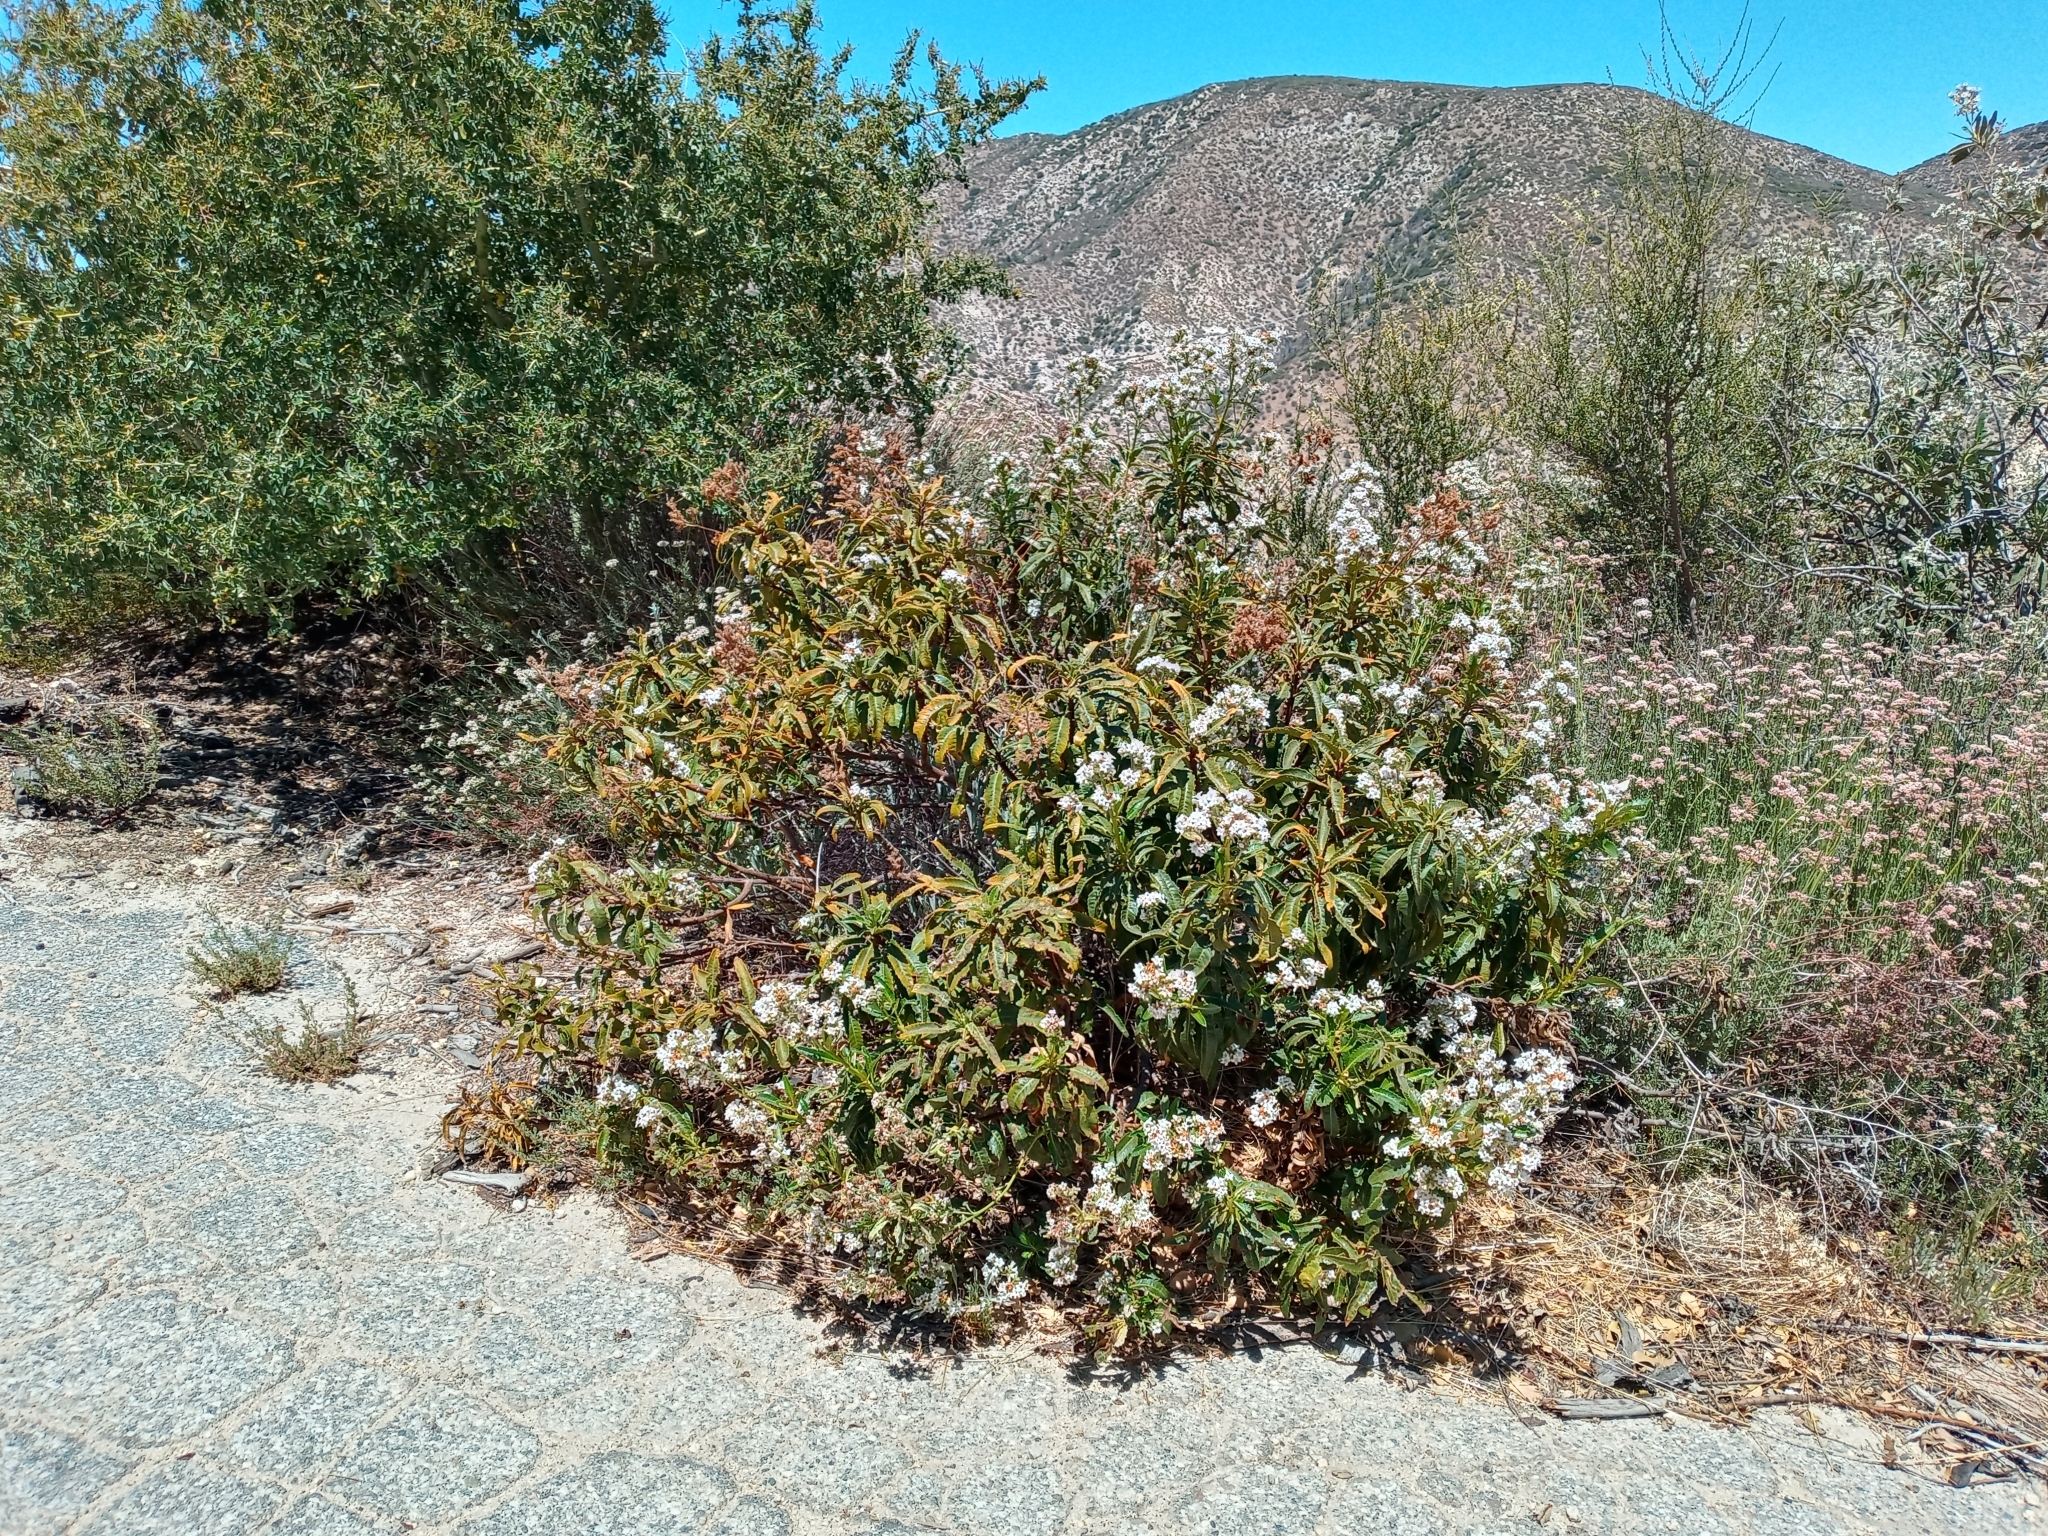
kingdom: Plantae
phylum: Tracheophyta
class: Magnoliopsida
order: Boraginales
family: Namaceae
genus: Eriodictyon
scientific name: Eriodictyon trichocalyx
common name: Hairy yerba-santa
